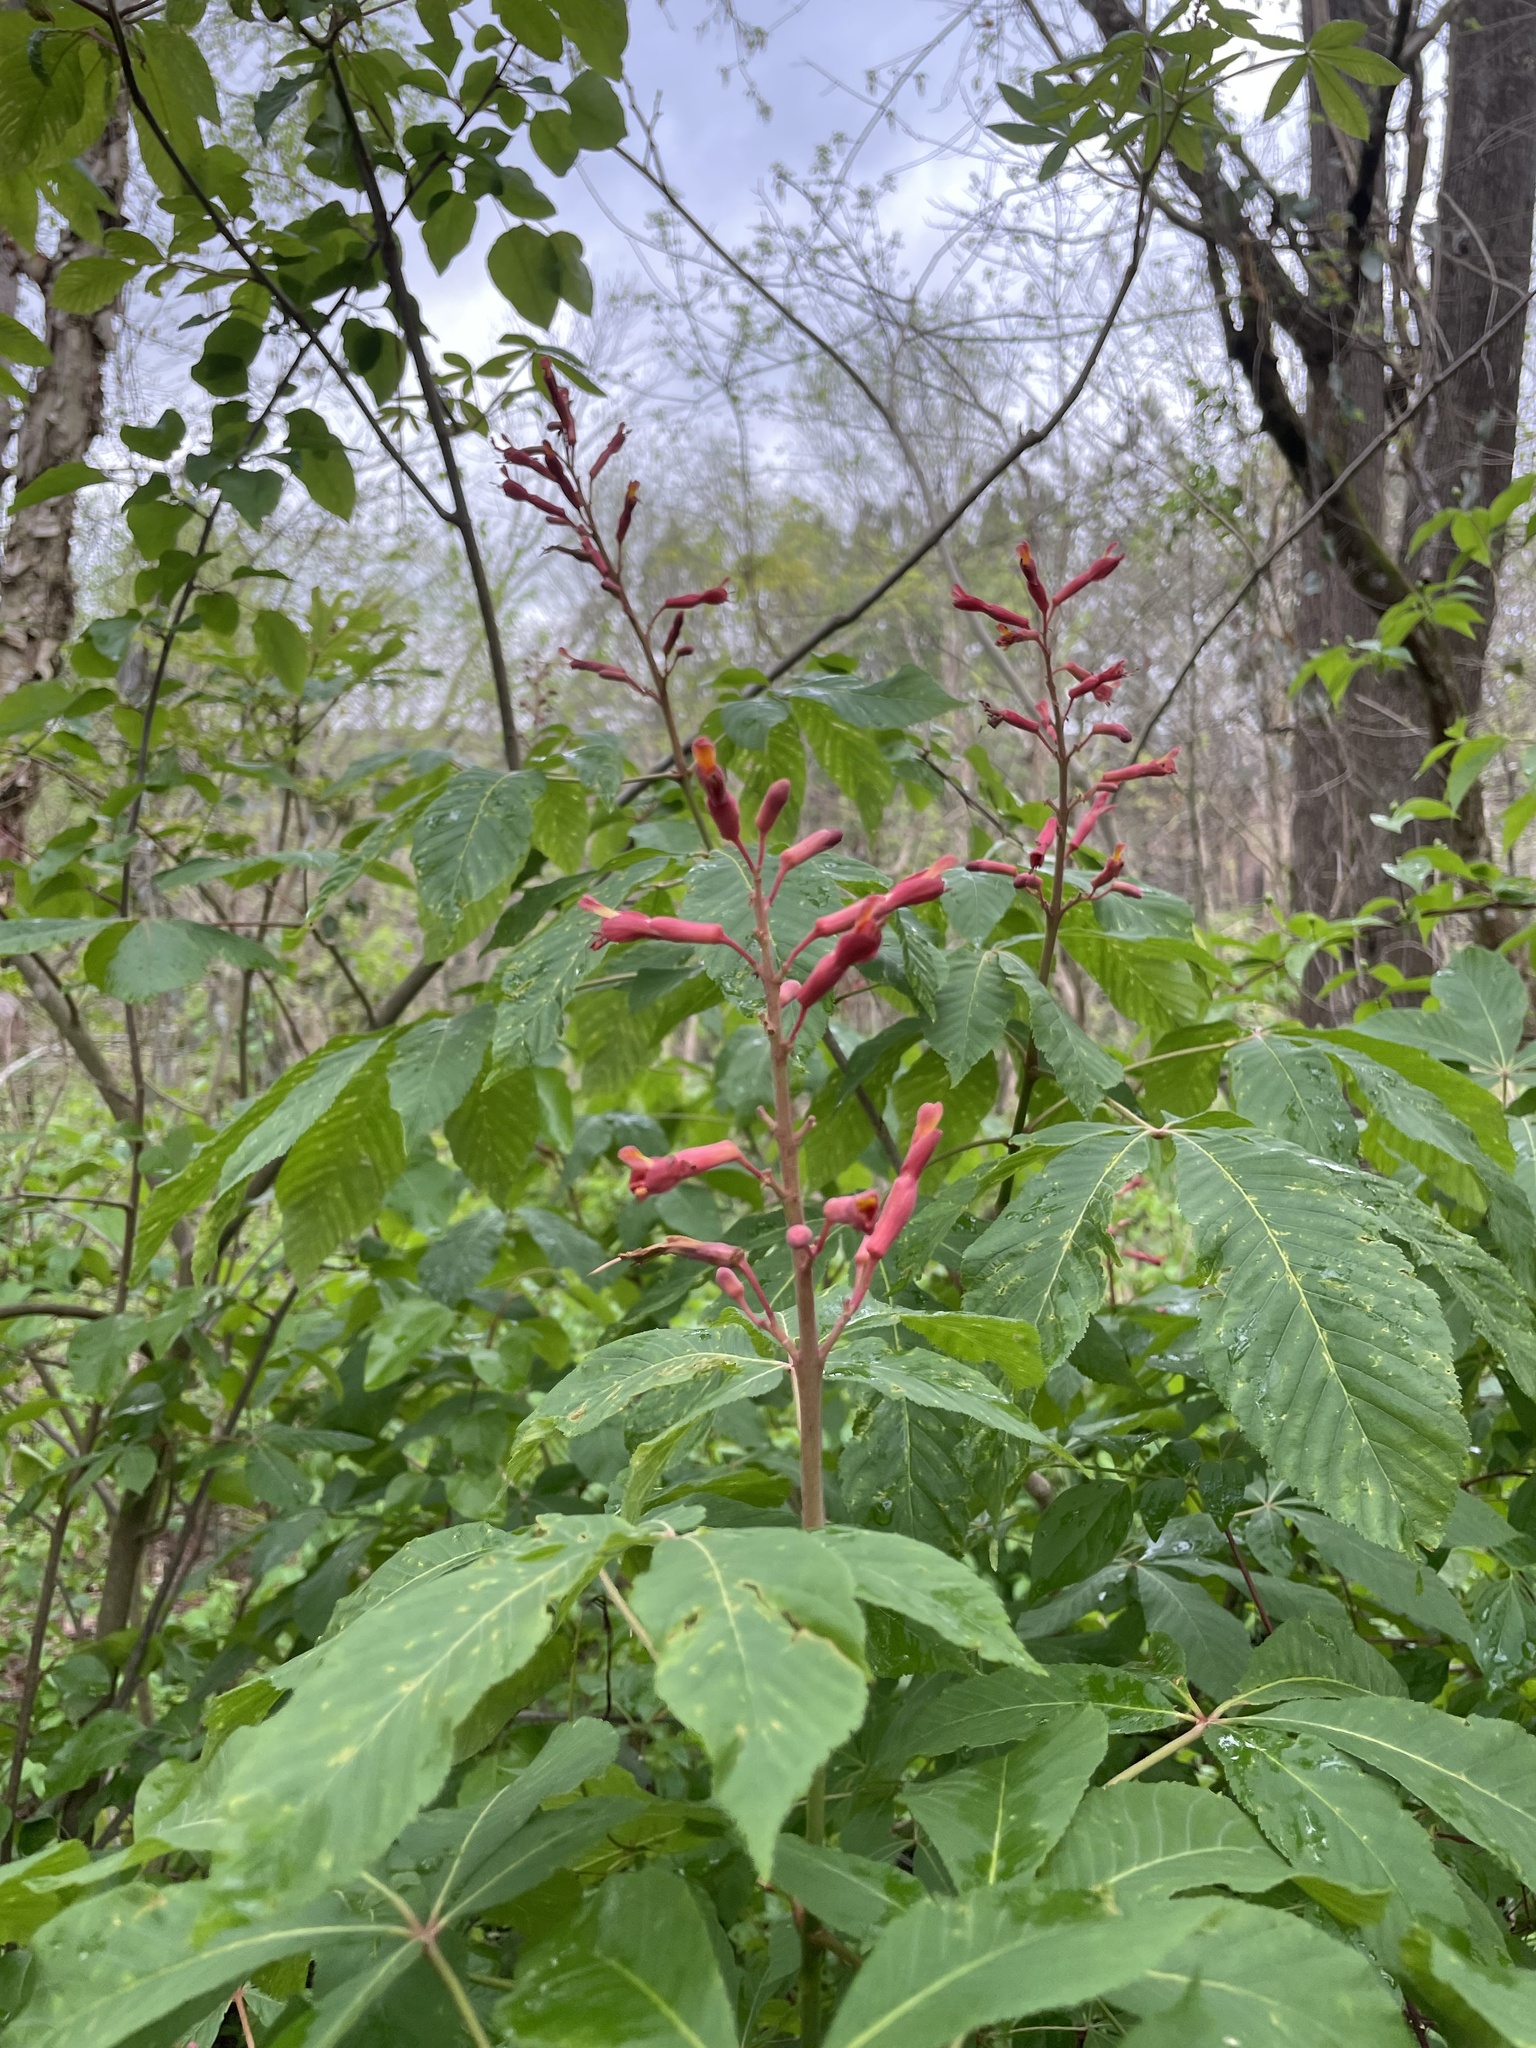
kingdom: Plantae
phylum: Tracheophyta
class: Magnoliopsida
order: Sapindales
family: Sapindaceae
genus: Aesculus
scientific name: Aesculus pavia
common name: Red buckeye
